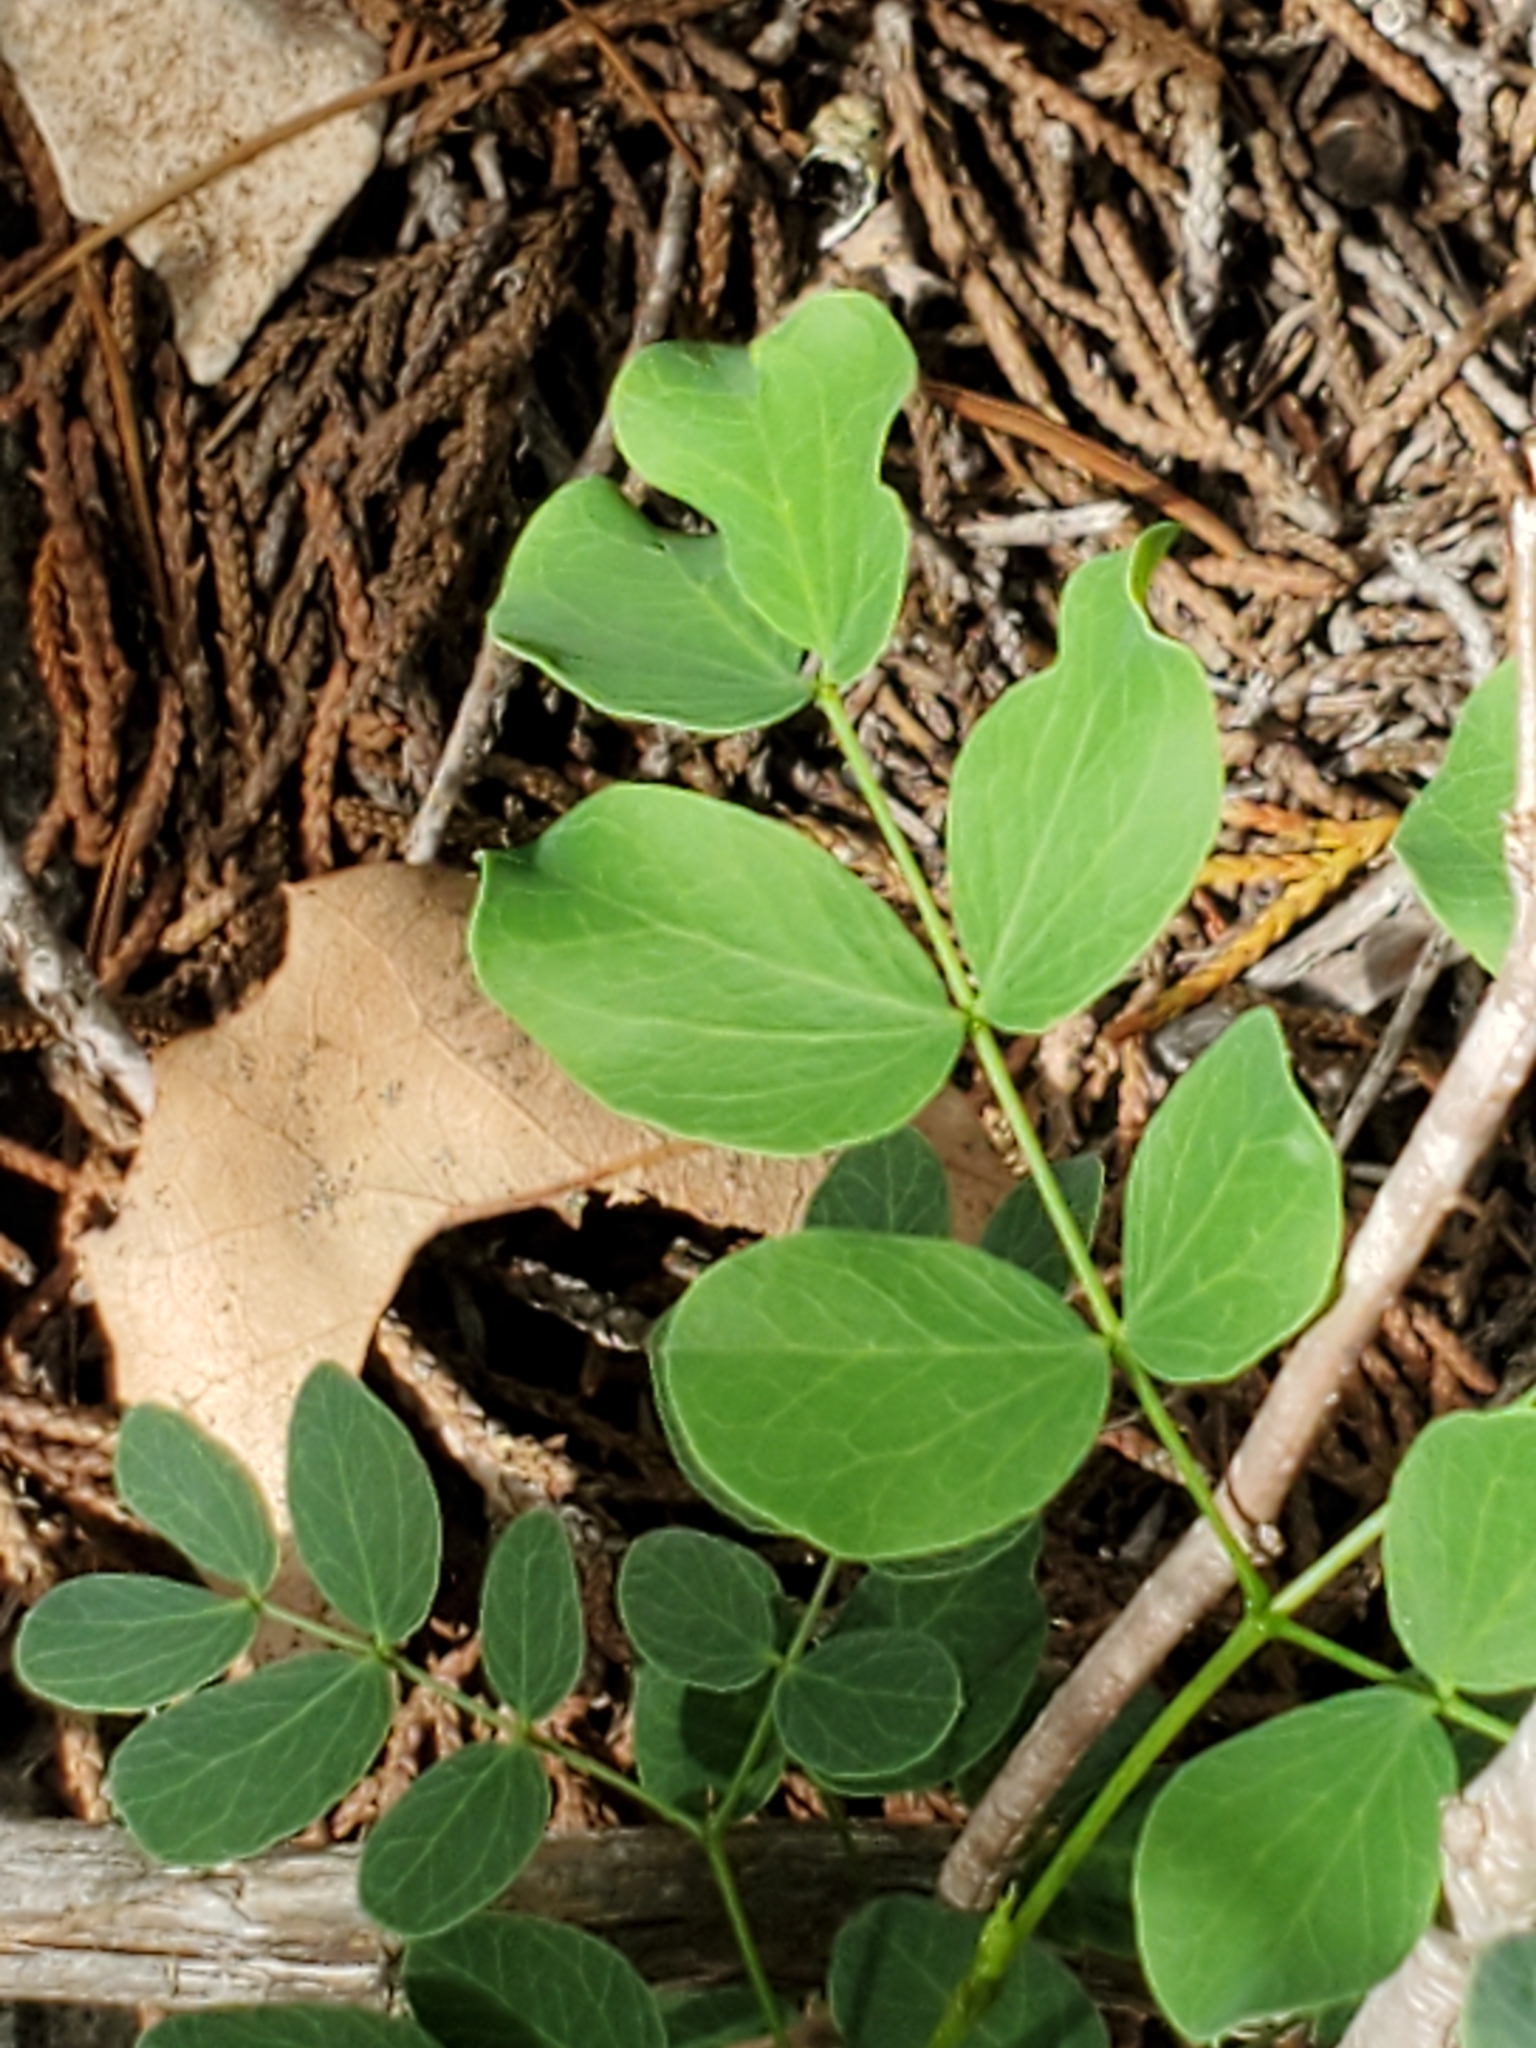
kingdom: Plantae
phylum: Tracheophyta
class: Magnoliopsida
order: Fabales
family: Fabaceae
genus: Leucaena
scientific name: Leucaena retusa
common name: Littleleaf leadtree
